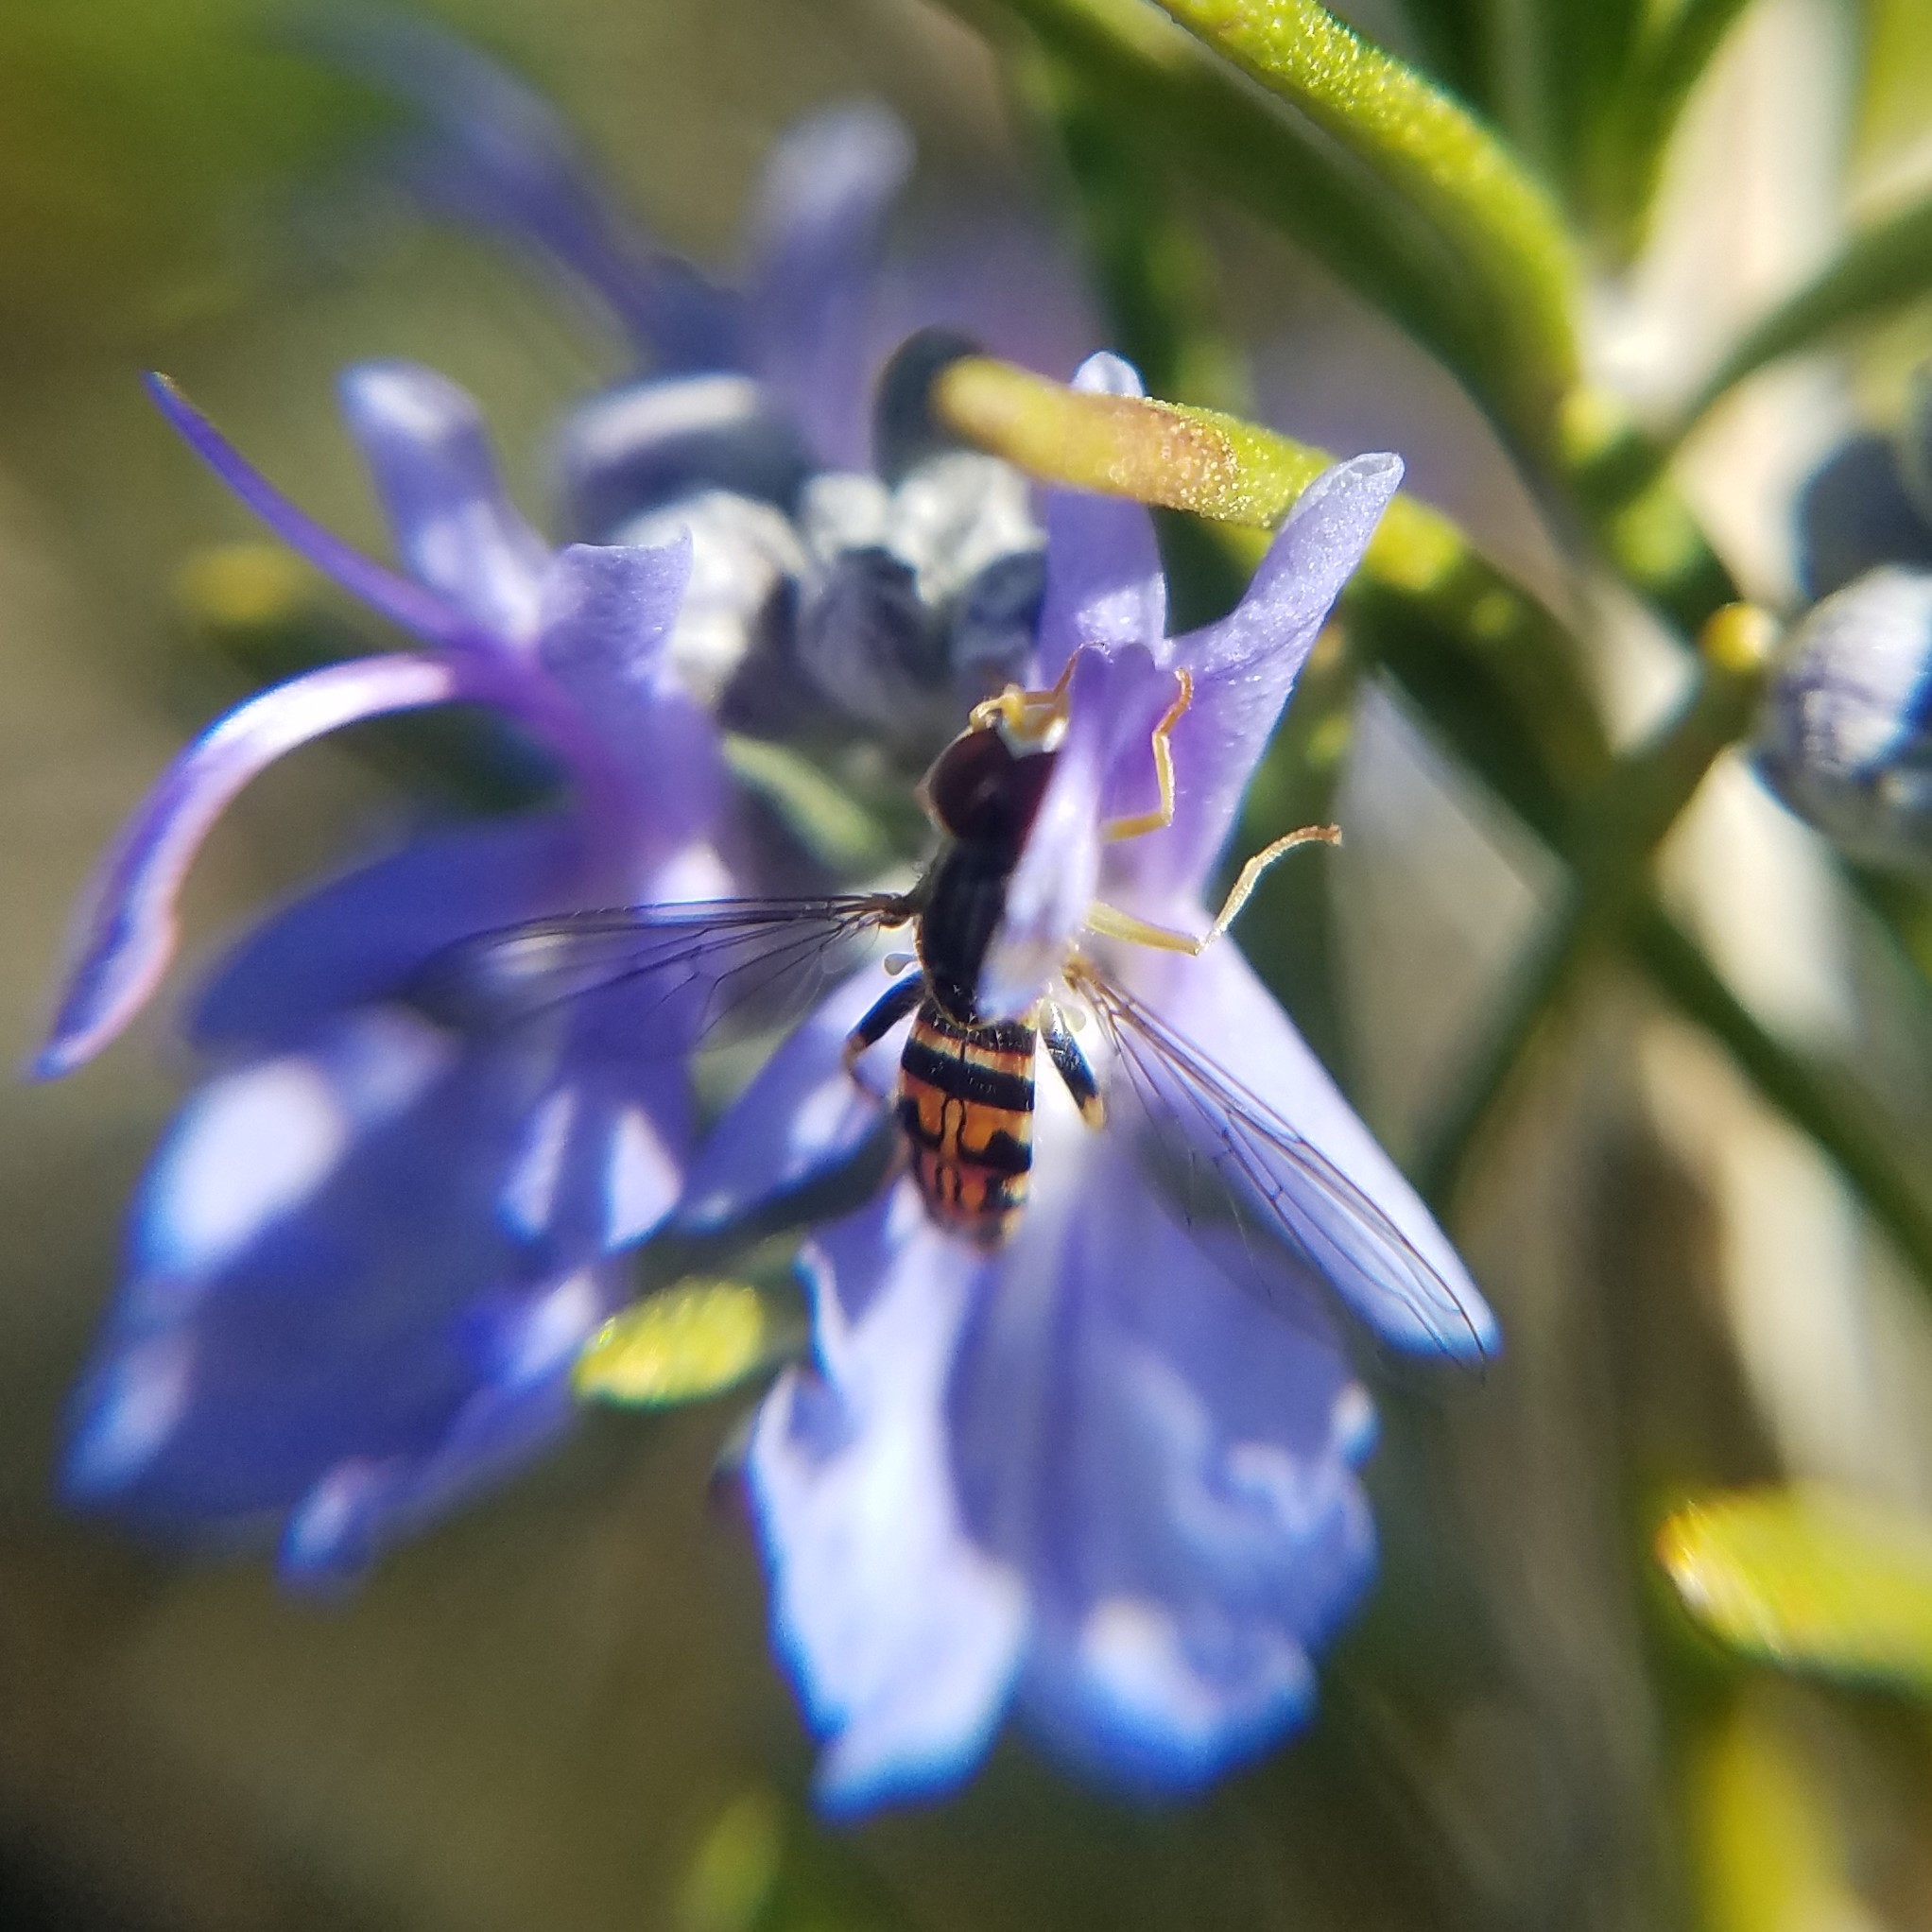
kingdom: Animalia
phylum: Arthropoda
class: Insecta
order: Diptera
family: Syrphidae
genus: Toxomerus
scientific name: Toxomerus geminatus
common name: Eastern calligrapher
